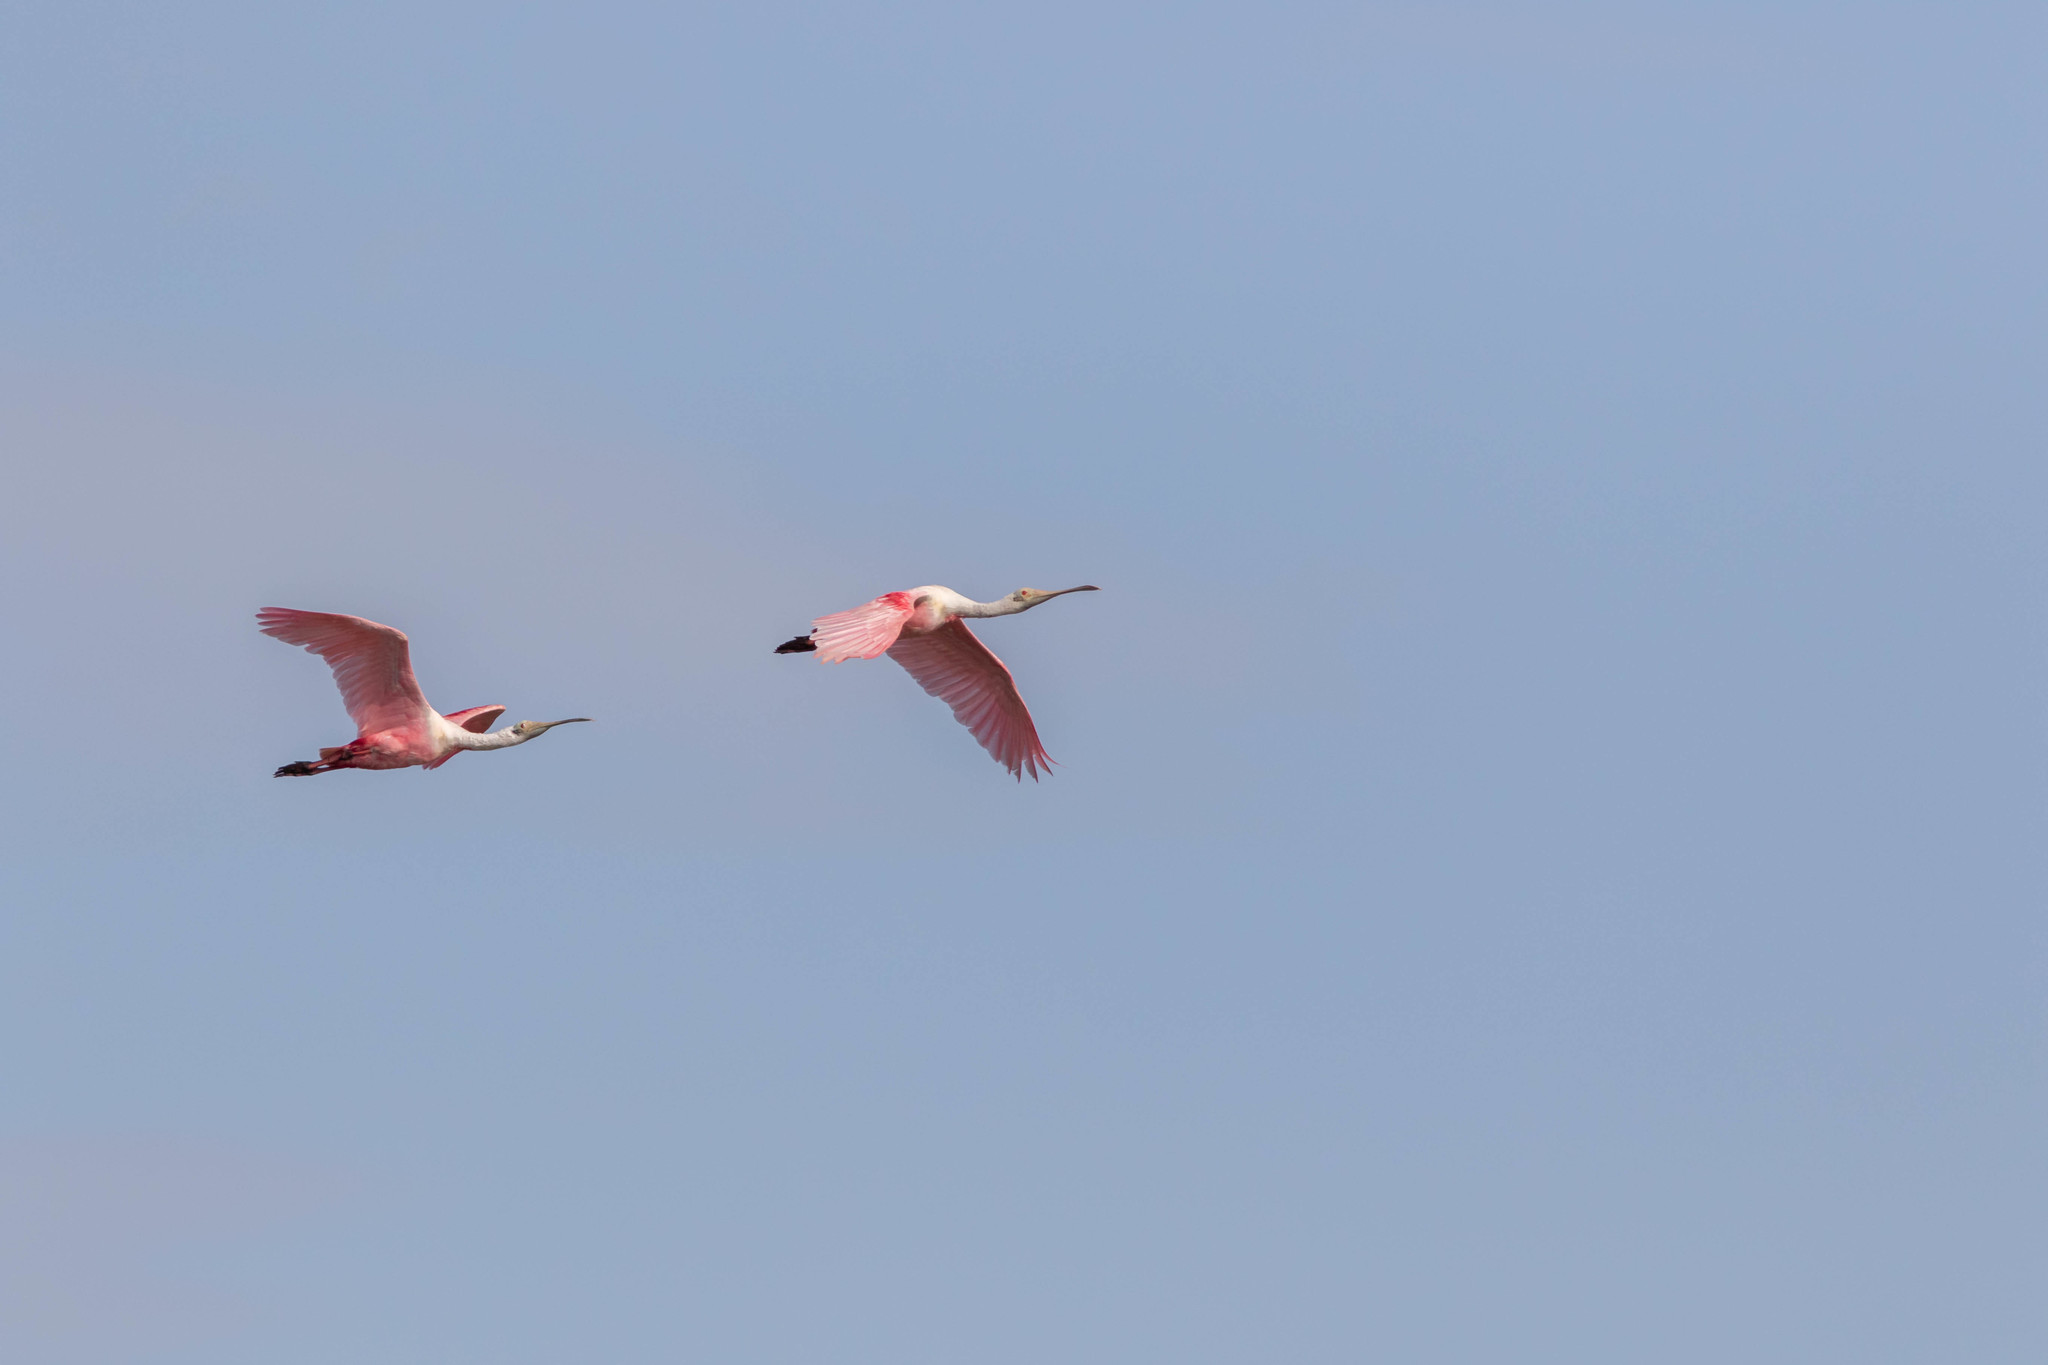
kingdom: Animalia
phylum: Chordata
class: Aves
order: Pelecaniformes
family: Threskiornithidae
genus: Platalea
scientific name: Platalea ajaja
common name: Roseate spoonbill
